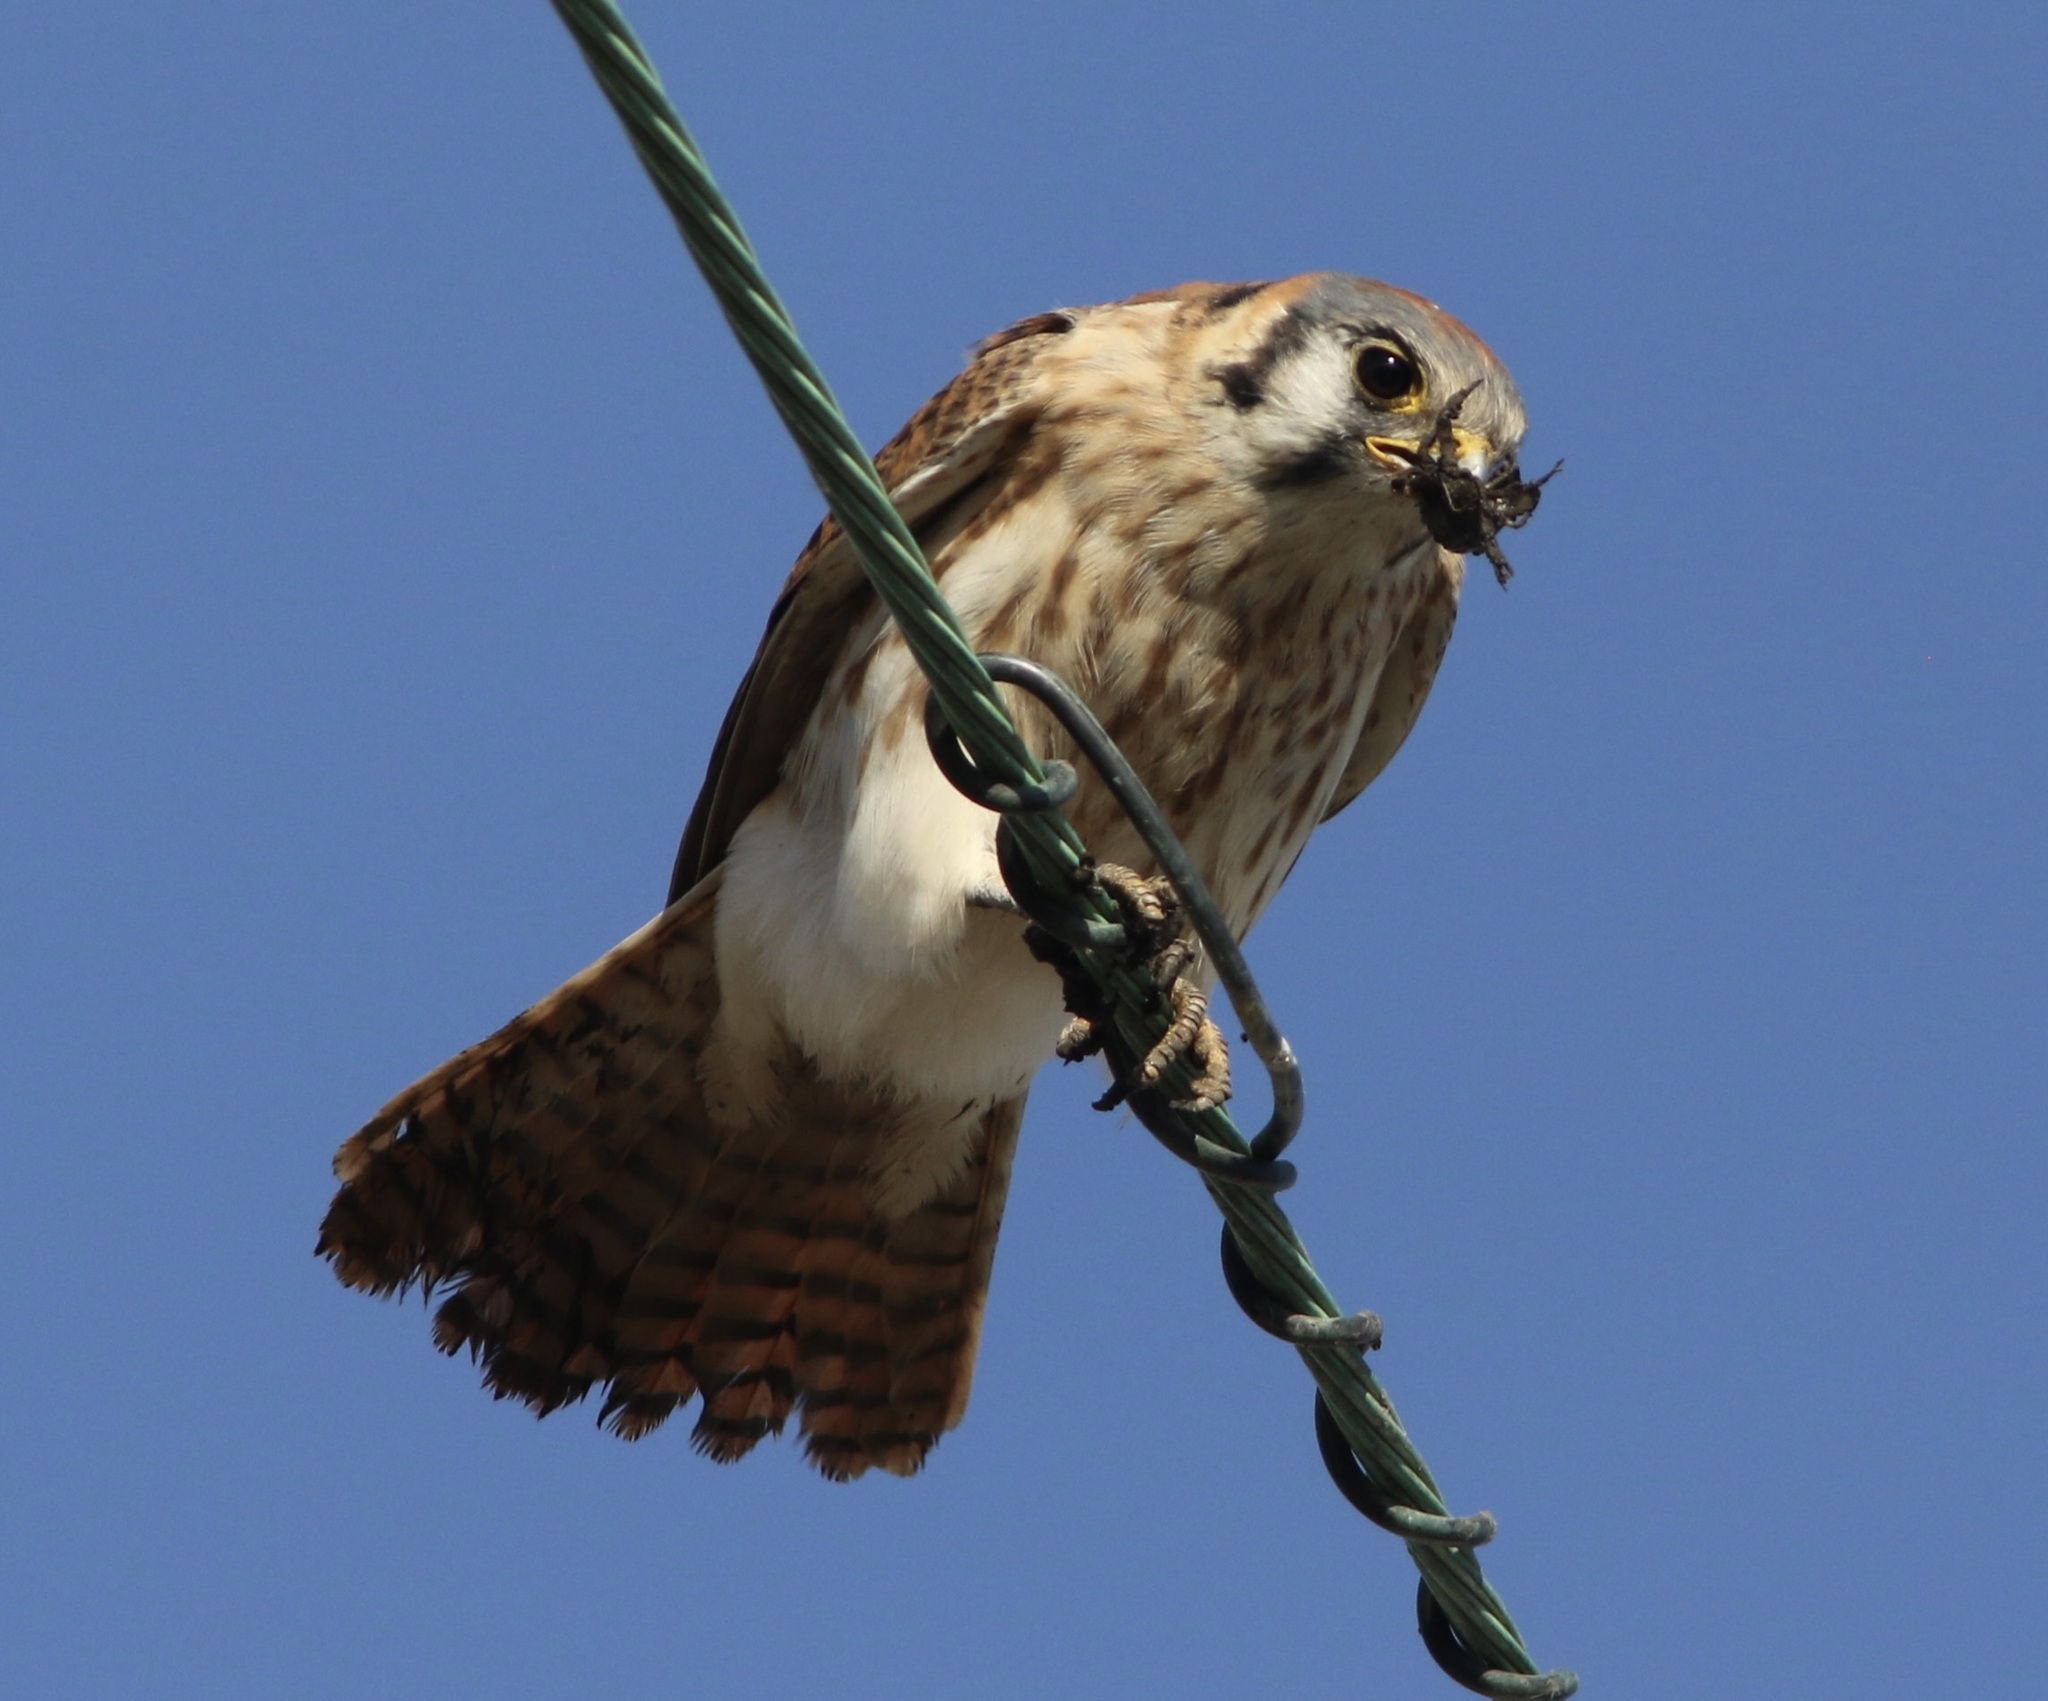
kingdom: Animalia
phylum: Chordata
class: Aves
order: Falconiformes
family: Falconidae
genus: Falco
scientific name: Falco sparverius
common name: American kestrel
